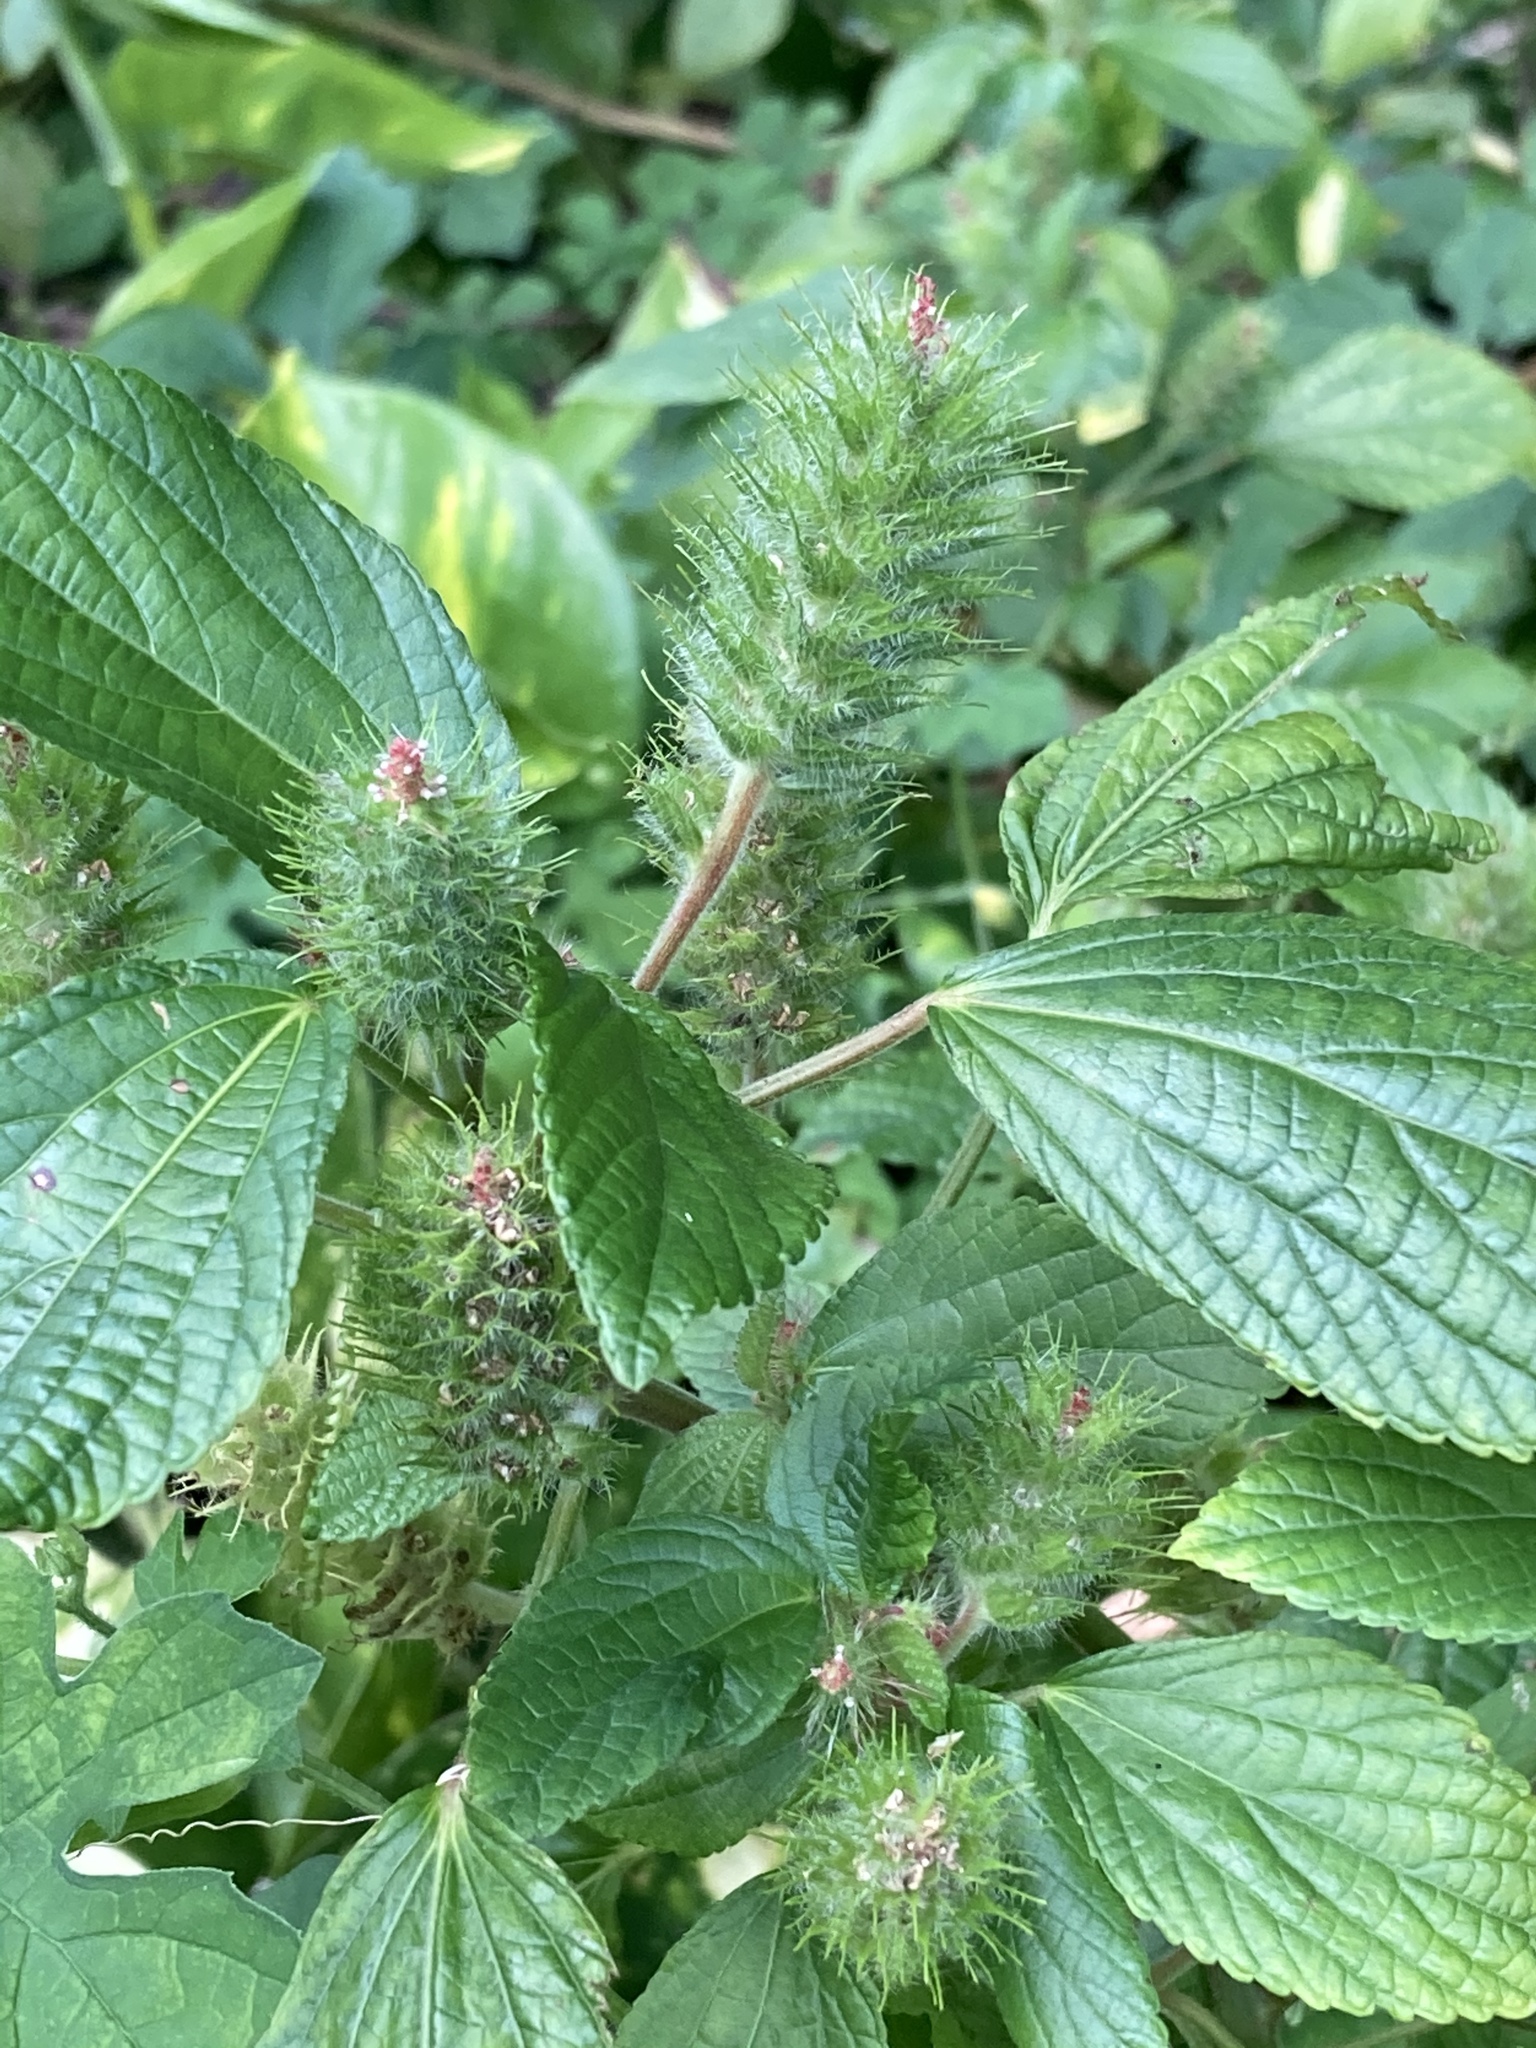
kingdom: Plantae
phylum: Tracheophyta
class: Magnoliopsida
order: Malpighiales
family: Euphorbiaceae
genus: Acalypha
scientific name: Acalypha arvensis
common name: Field copperleaf
